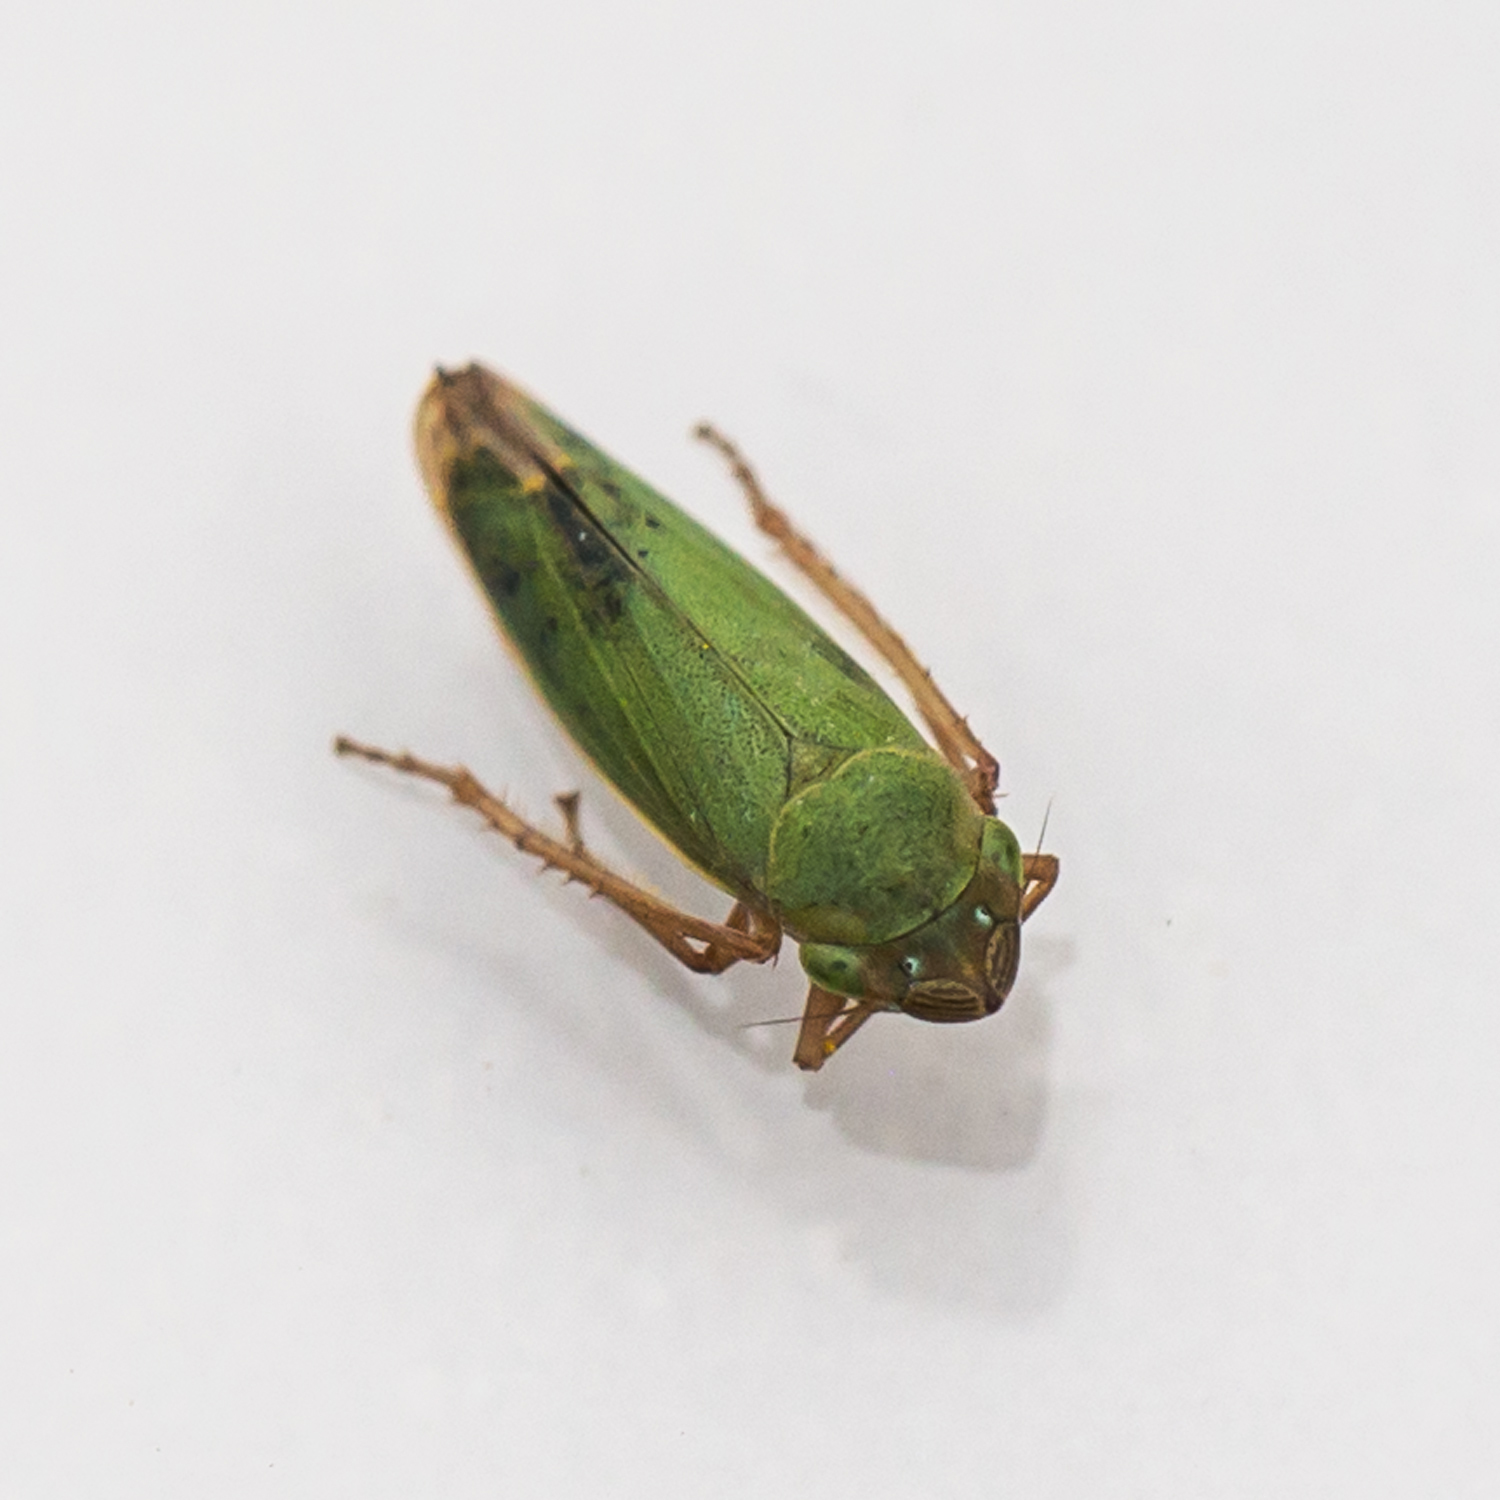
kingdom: Animalia
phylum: Arthropoda
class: Insecta
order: Hemiptera
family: Cicadellidae
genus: Helochara
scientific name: Helochara communis
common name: Bog leafhopper
